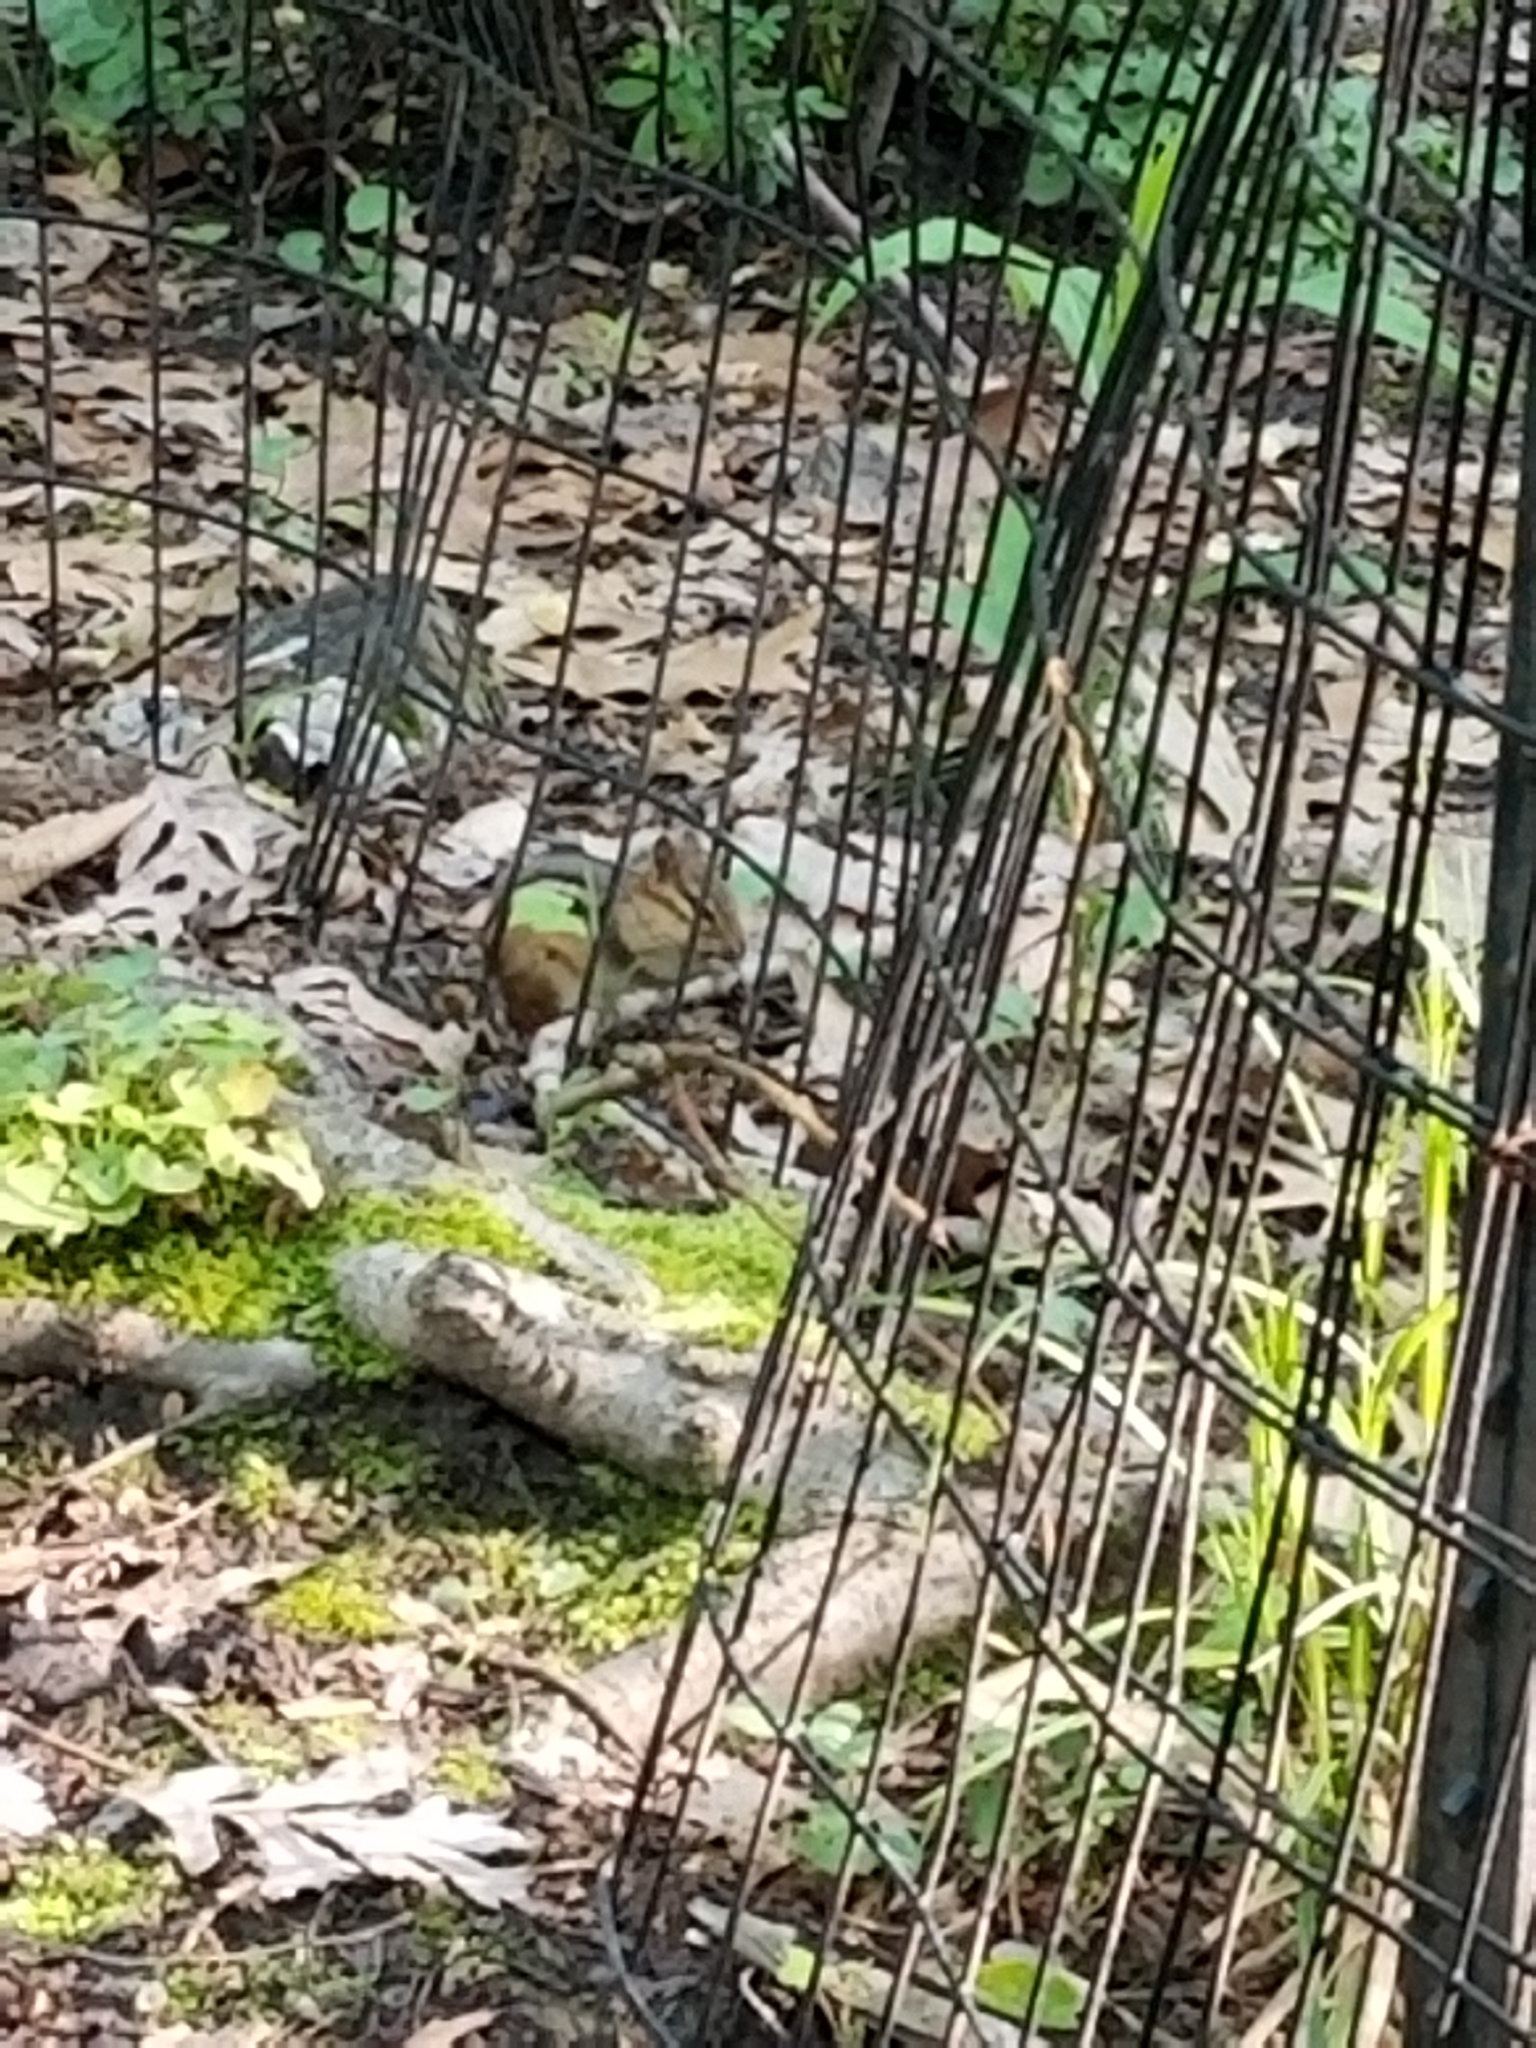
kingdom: Animalia
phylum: Chordata
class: Mammalia
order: Rodentia
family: Sciuridae
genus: Tamias
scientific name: Tamias striatus
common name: Eastern chipmunk
